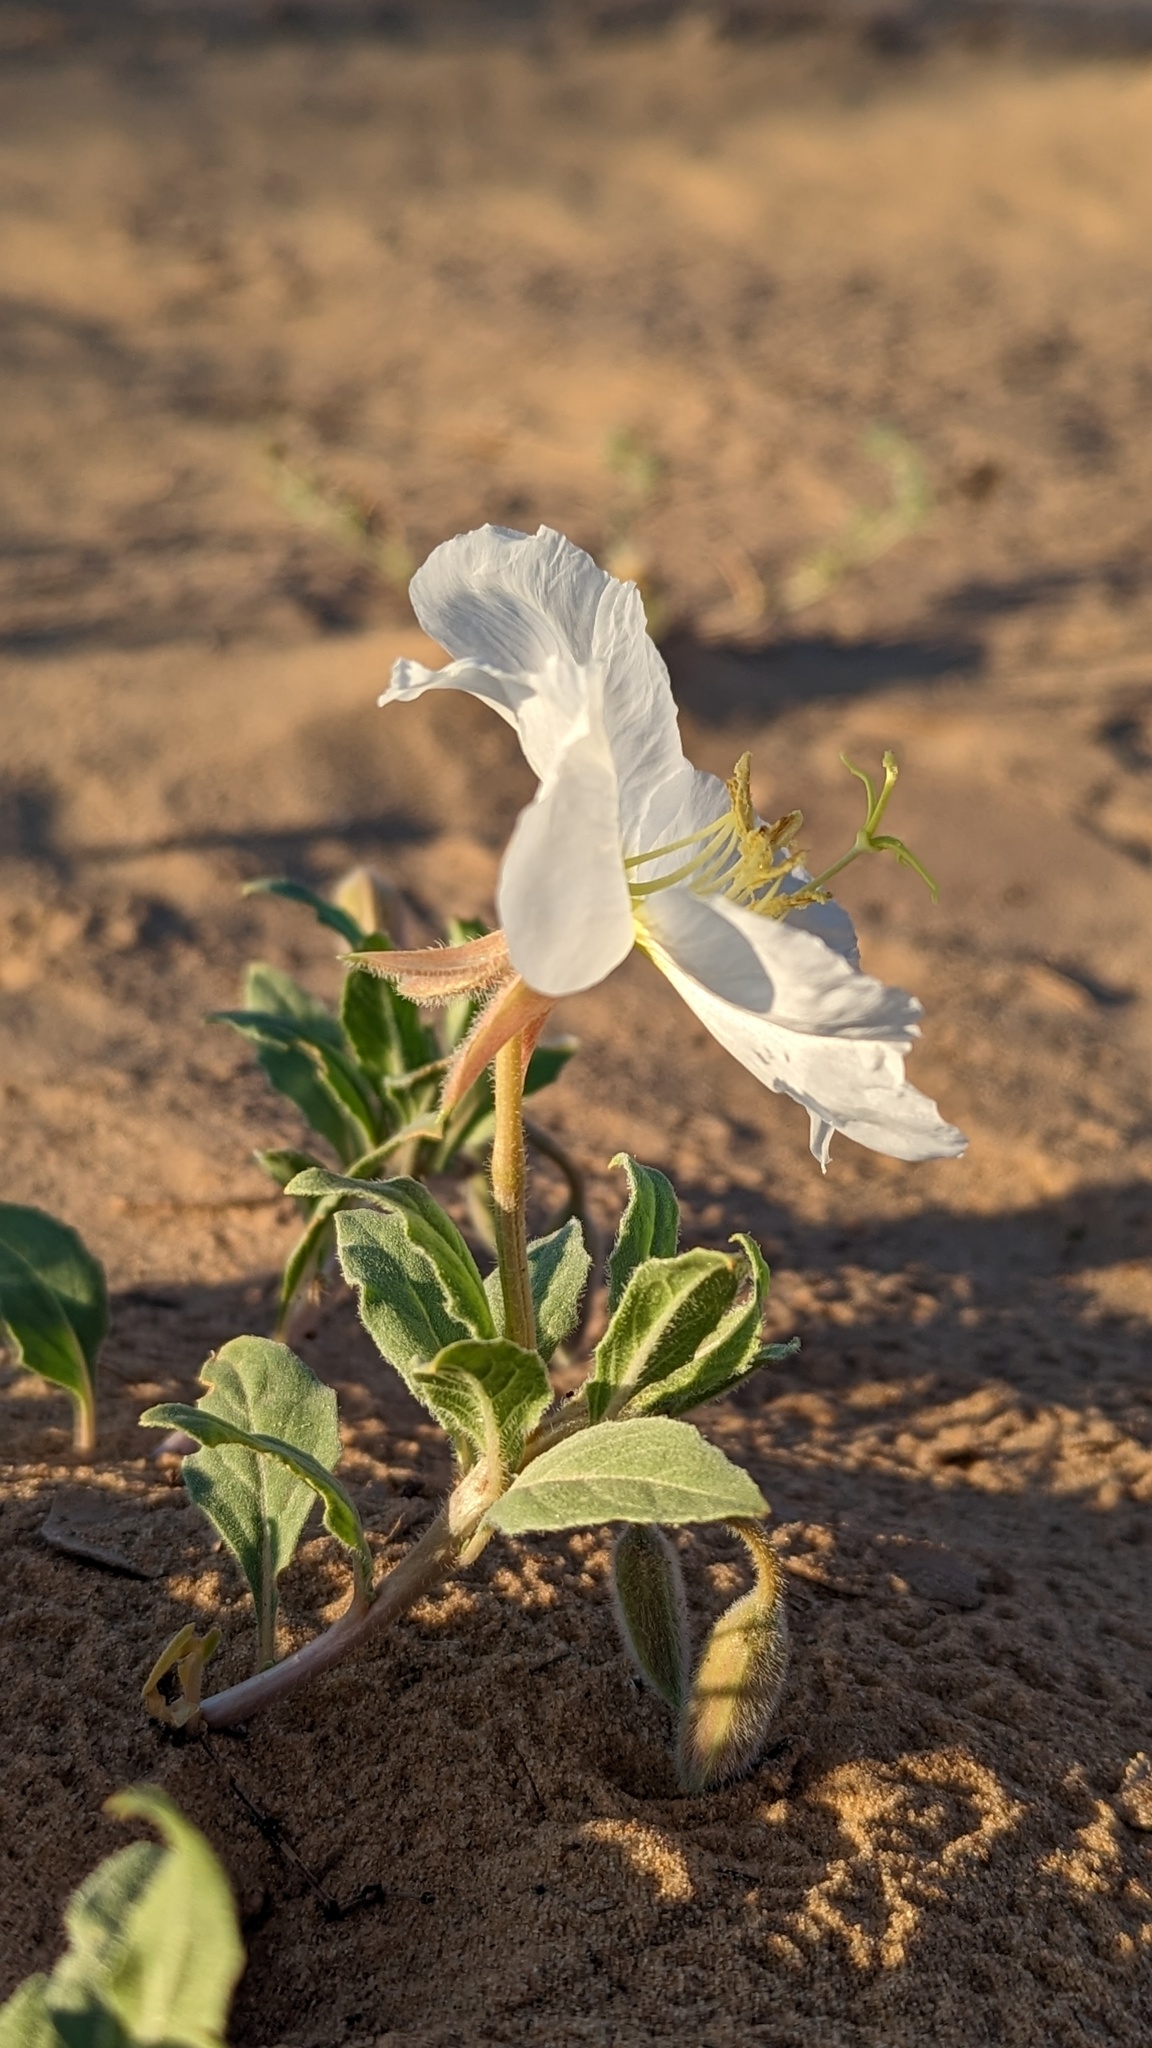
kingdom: Plantae
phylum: Tracheophyta
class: Magnoliopsida
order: Myrtales
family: Onagraceae
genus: Oenothera
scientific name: Oenothera deltoides
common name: Basket evening-primrose
